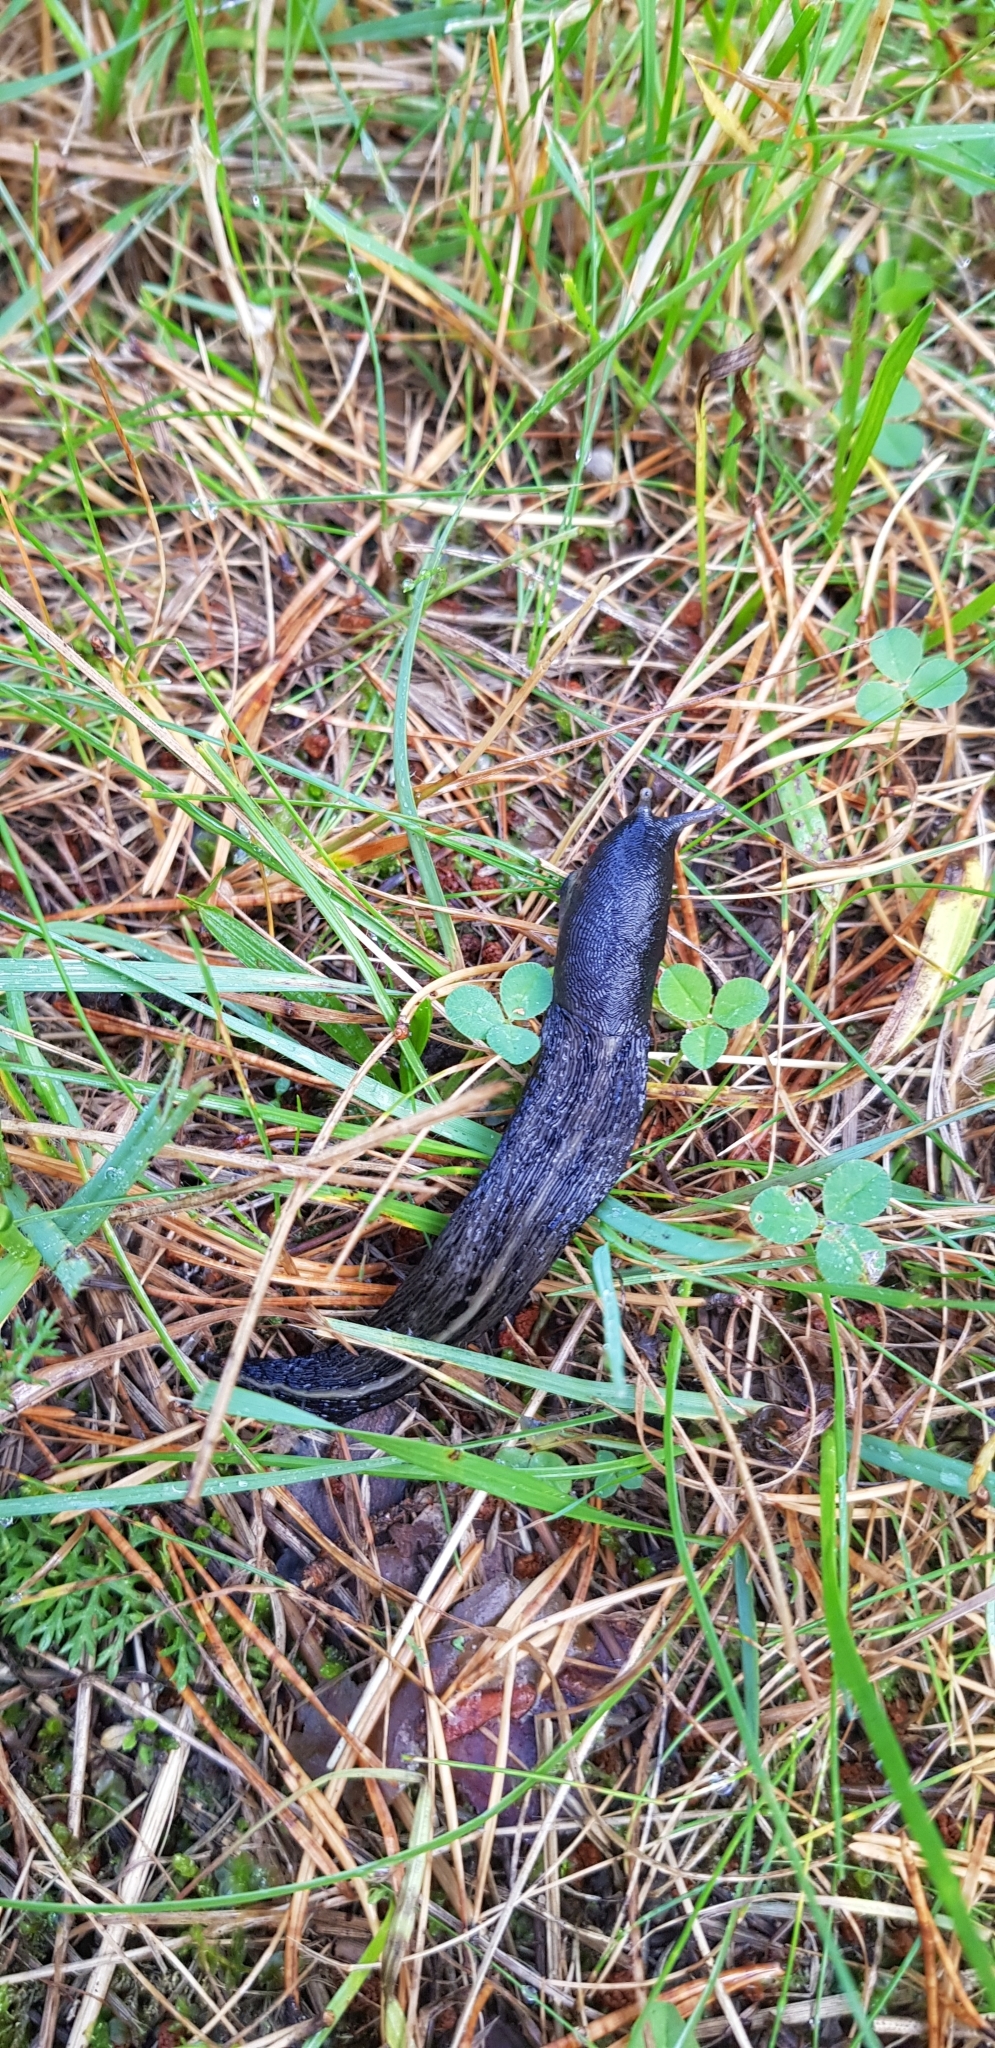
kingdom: Animalia
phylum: Mollusca
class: Gastropoda
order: Stylommatophora
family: Limacidae
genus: Limax
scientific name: Limax cinereoniger
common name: Ash-black slug
